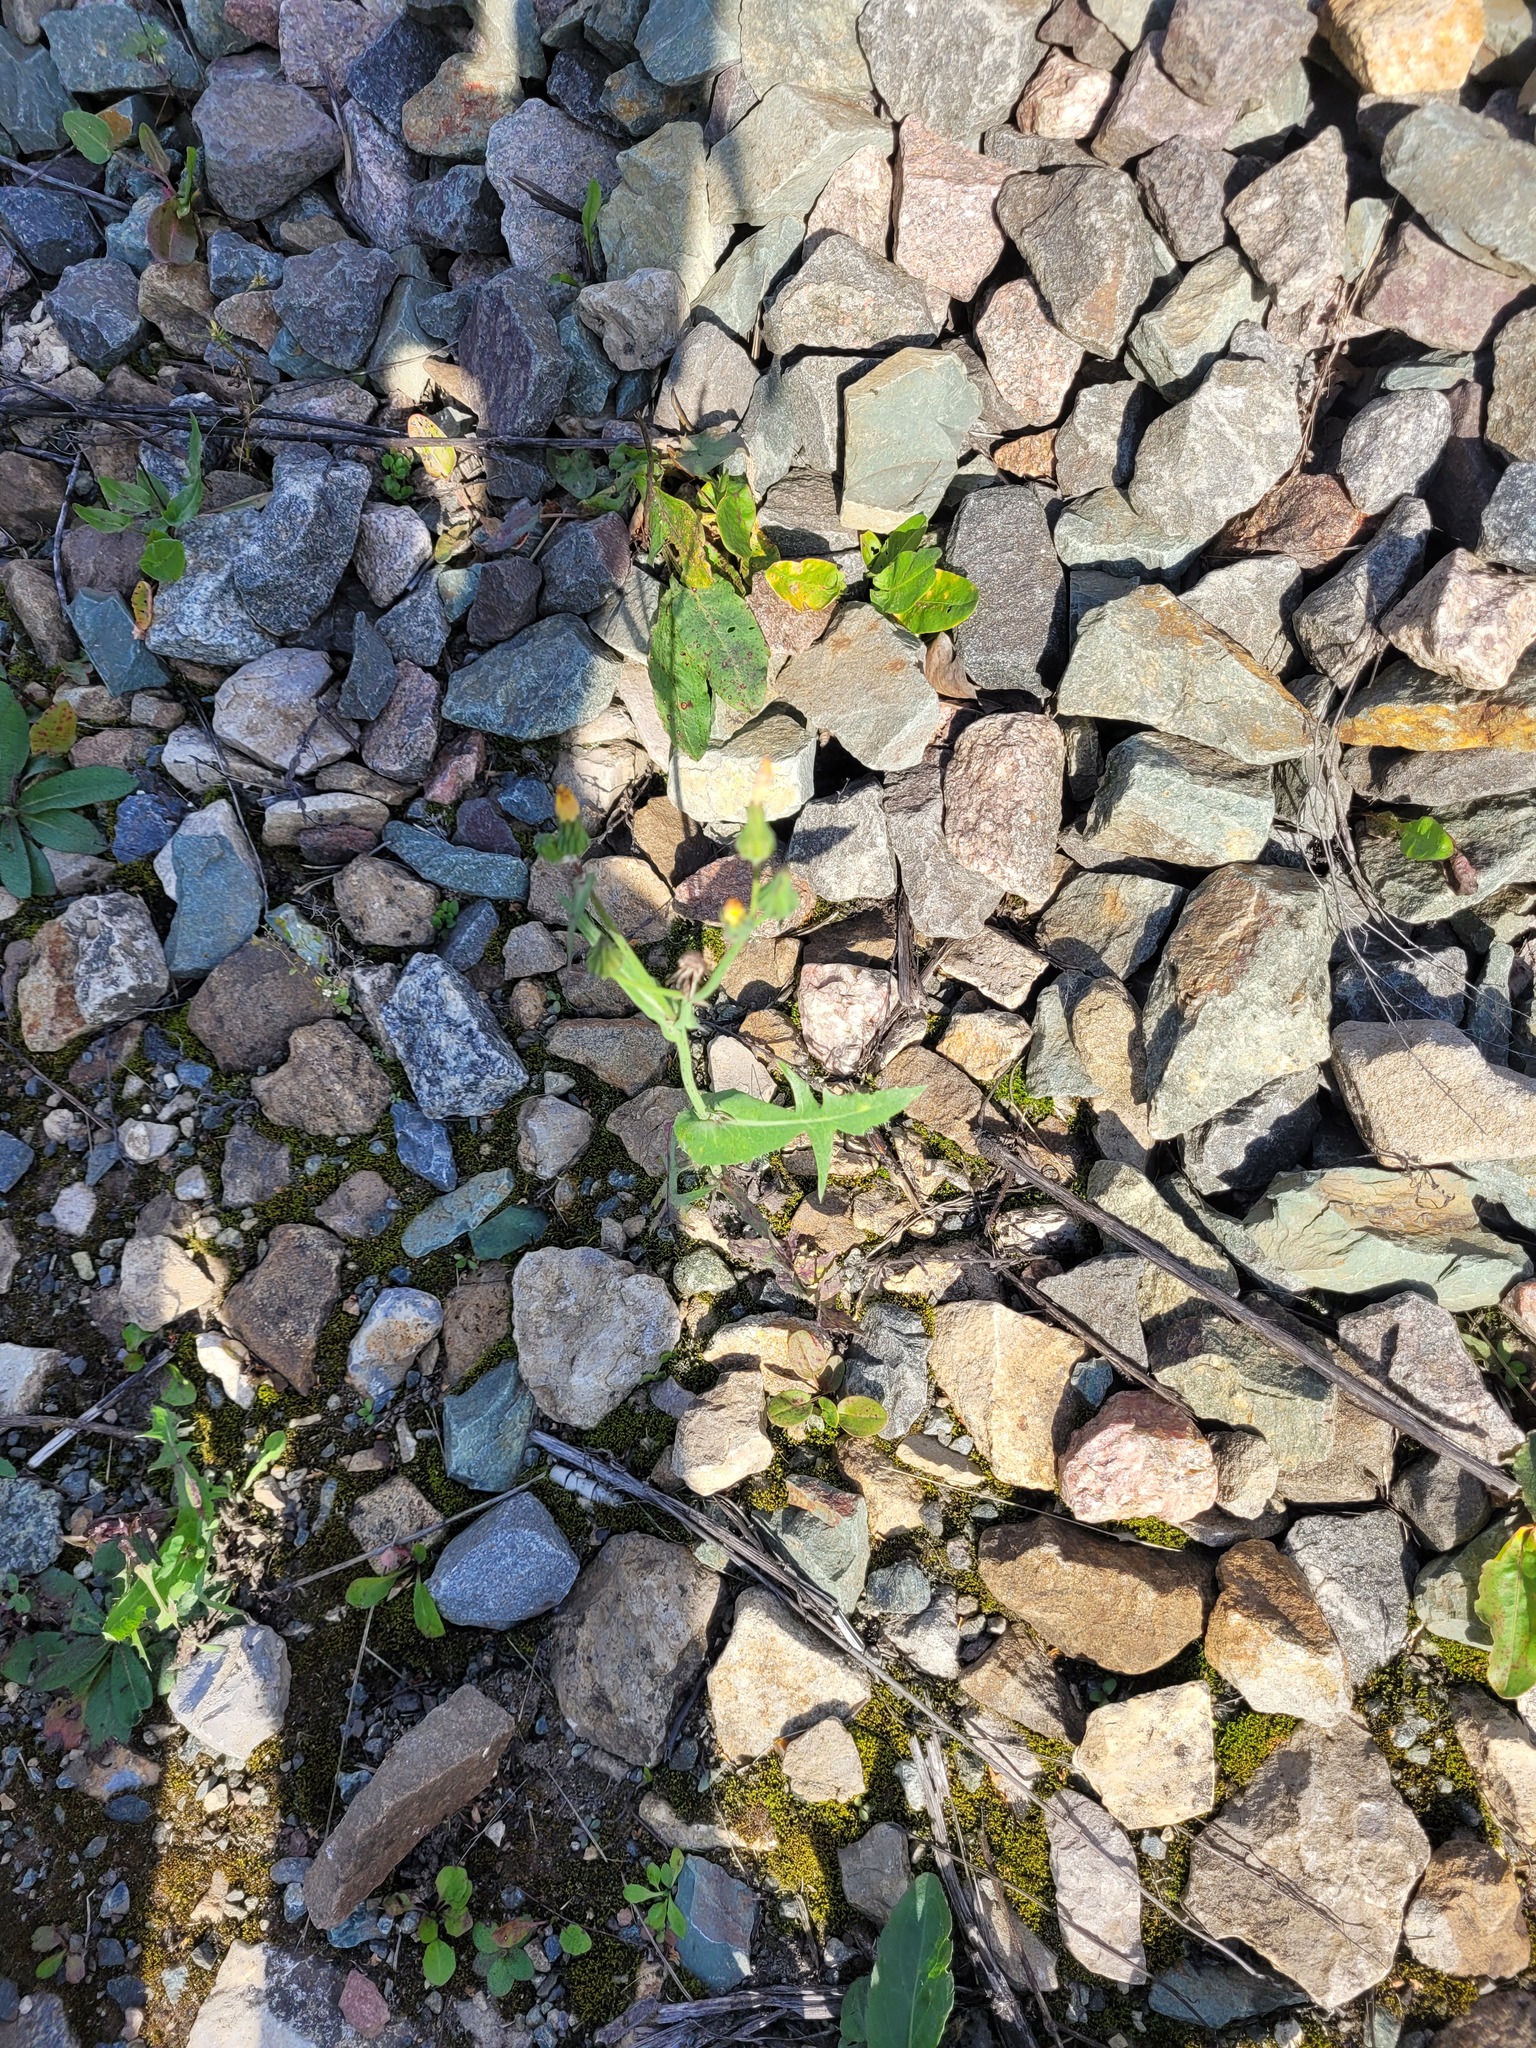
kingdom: Plantae
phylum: Tracheophyta
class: Magnoliopsida
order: Asterales
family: Asteraceae
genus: Sonchus
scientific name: Sonchus oleraceus
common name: Common sowthistle
